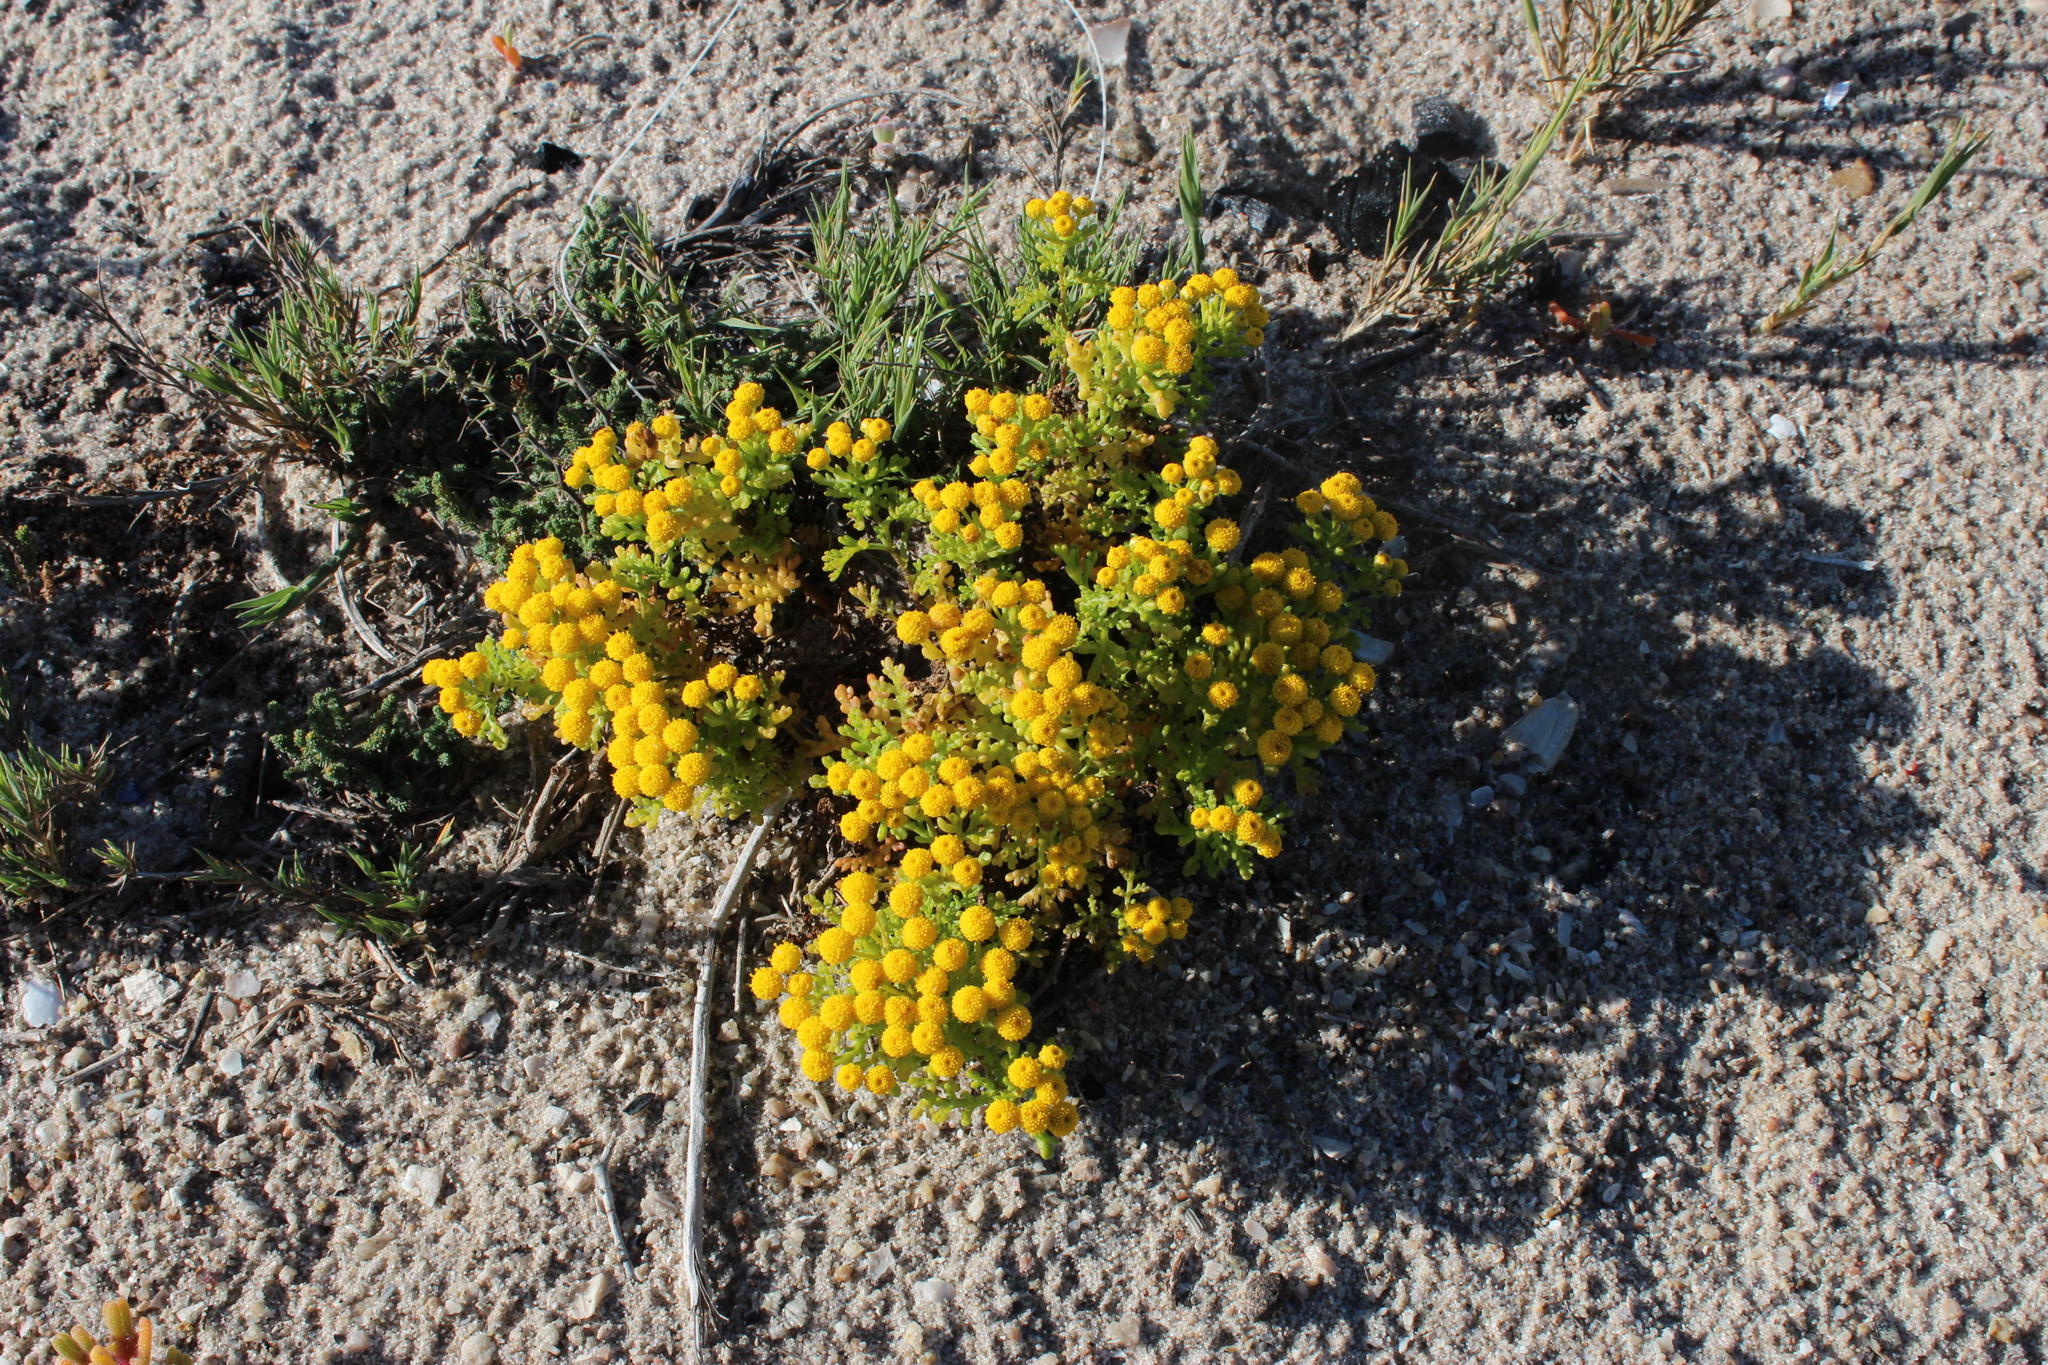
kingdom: Plantae
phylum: Tracheophyta
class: Magnoliopsida
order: Asterales
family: Asteraceae
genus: Oncosiphon
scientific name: Oncosiphon schlechteri
